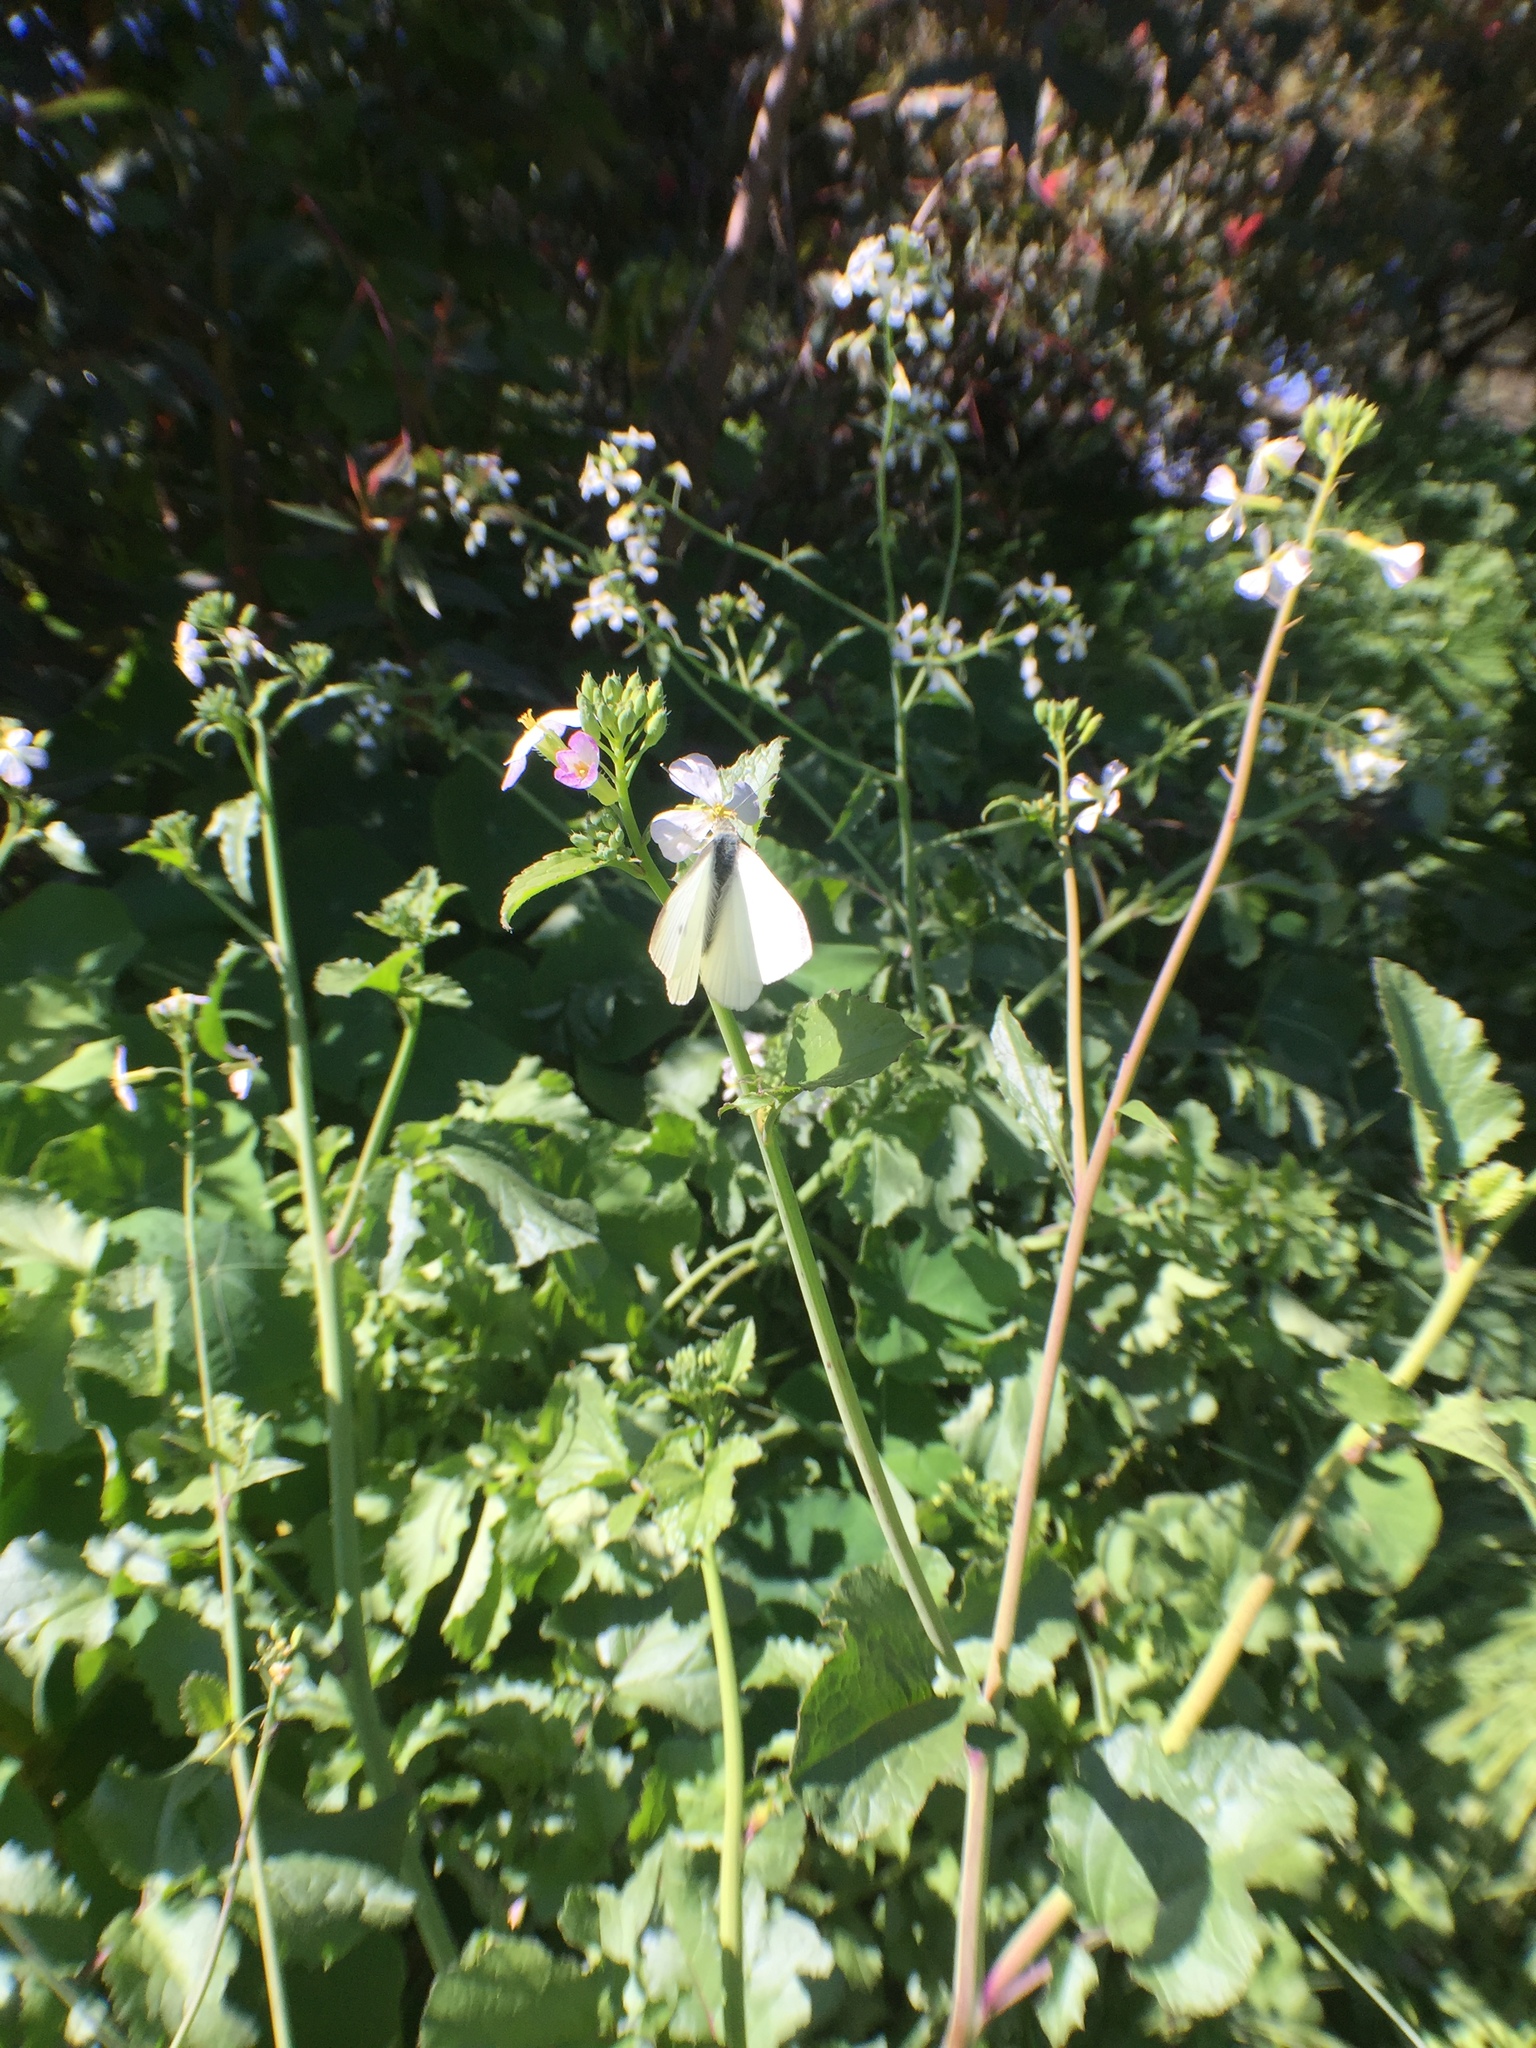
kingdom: Animalia
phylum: Arthropoda
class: Insecta
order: Lepidoptera
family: Pieridae
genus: Pieris
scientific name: Pieris rapae
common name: Small white
